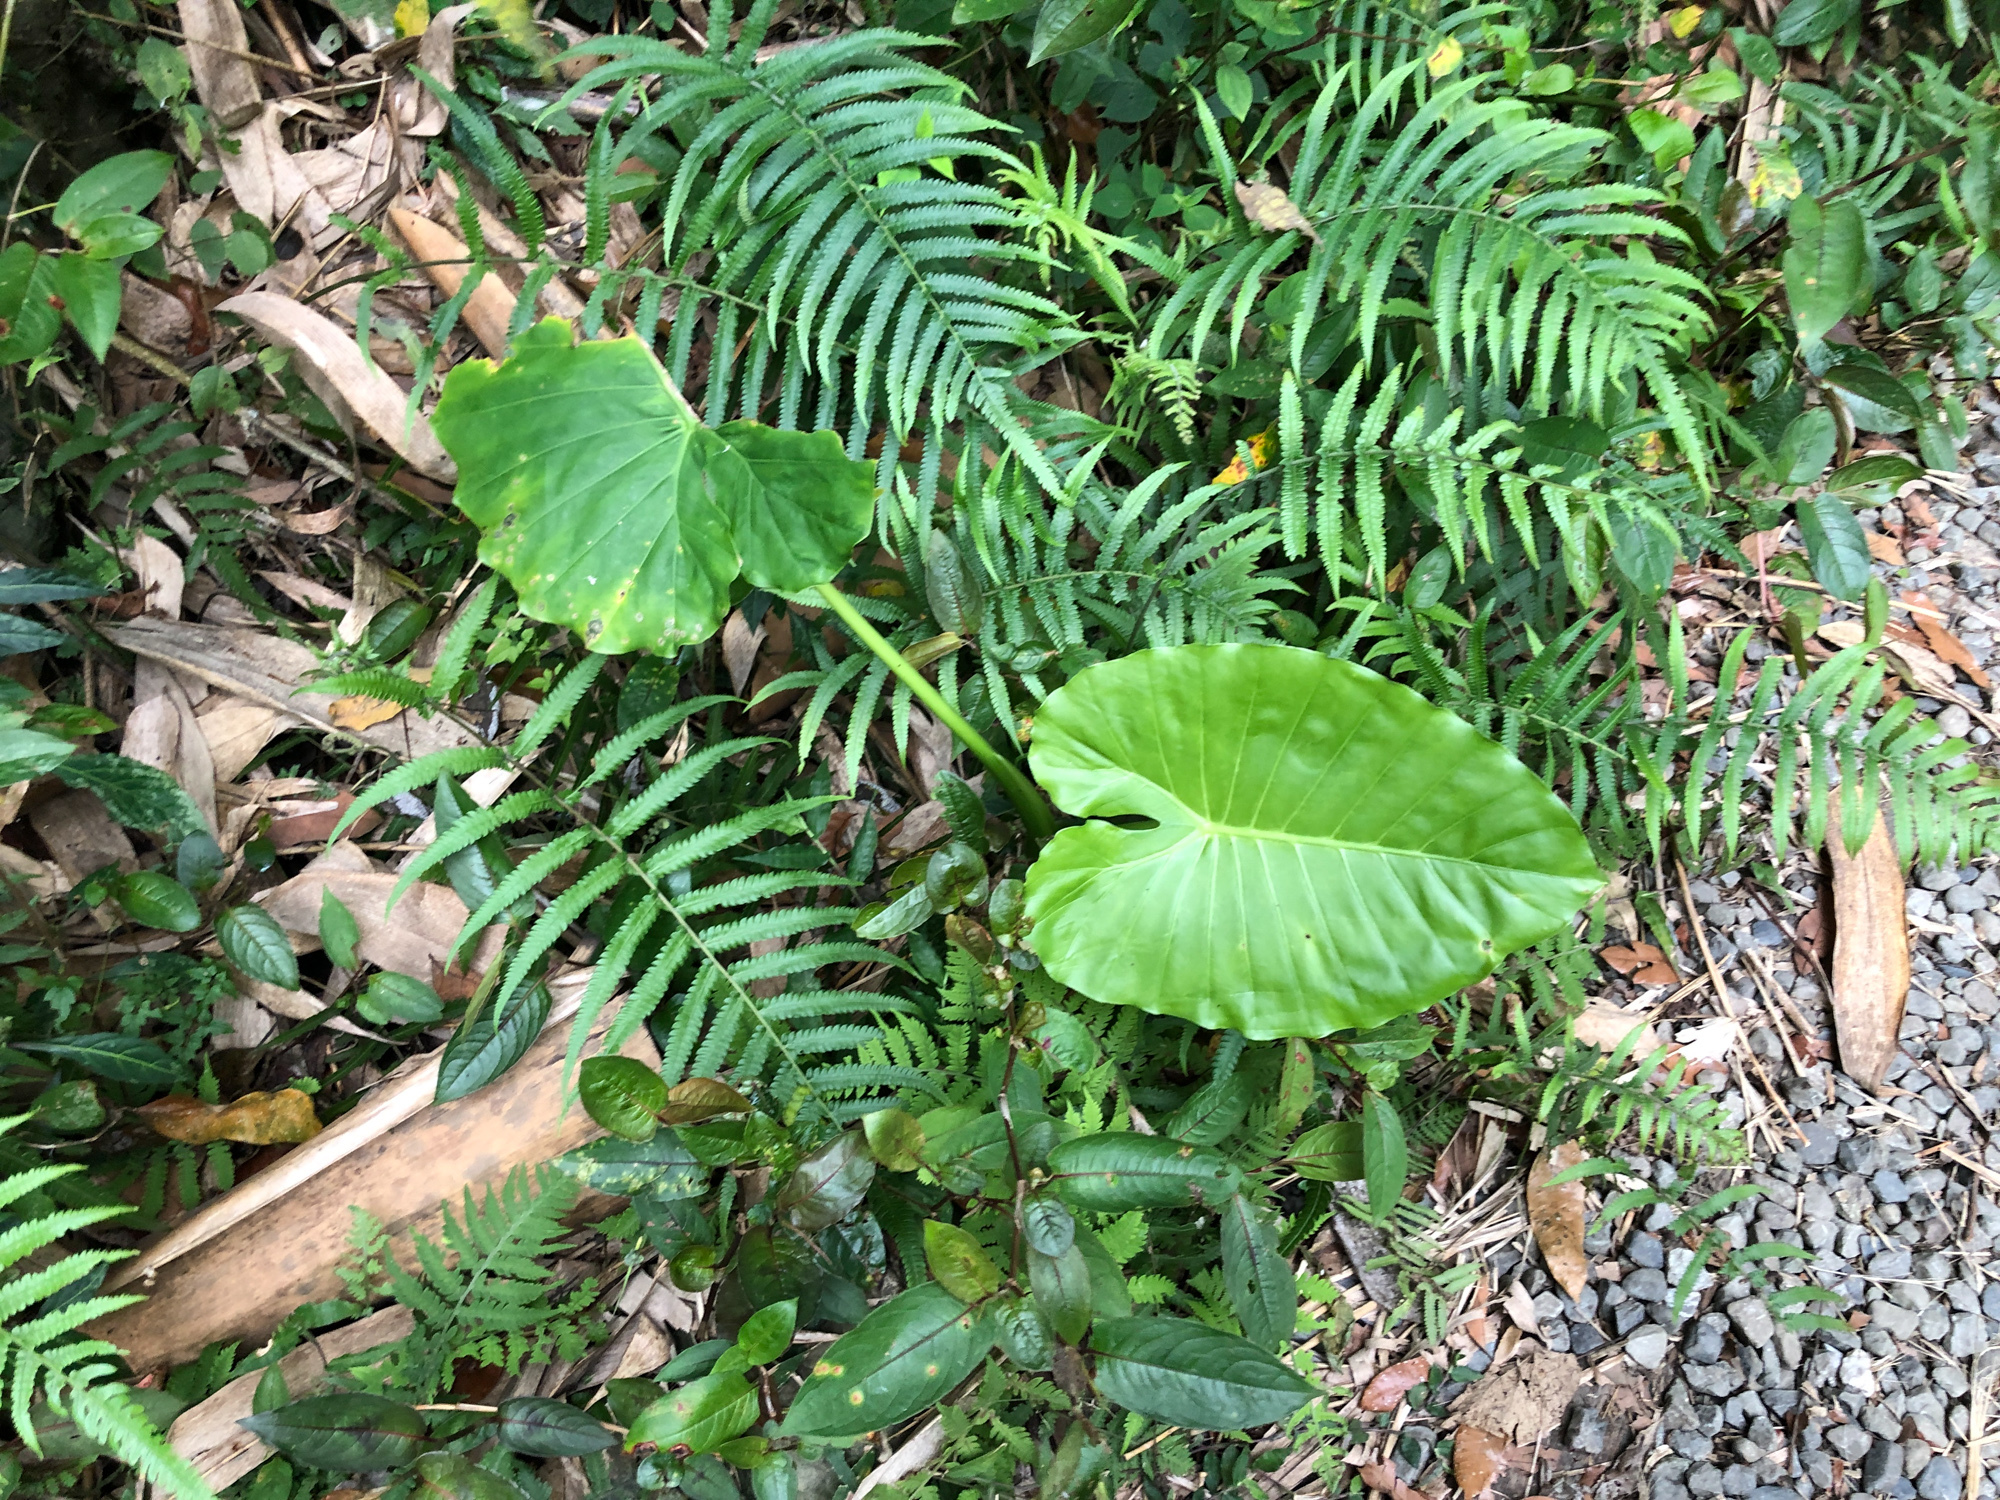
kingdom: Plantae
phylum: Tracheophyta
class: Liliopsida
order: Alismatales
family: Araceae
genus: Alocasia
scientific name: Alocasia odora
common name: Asian taro
